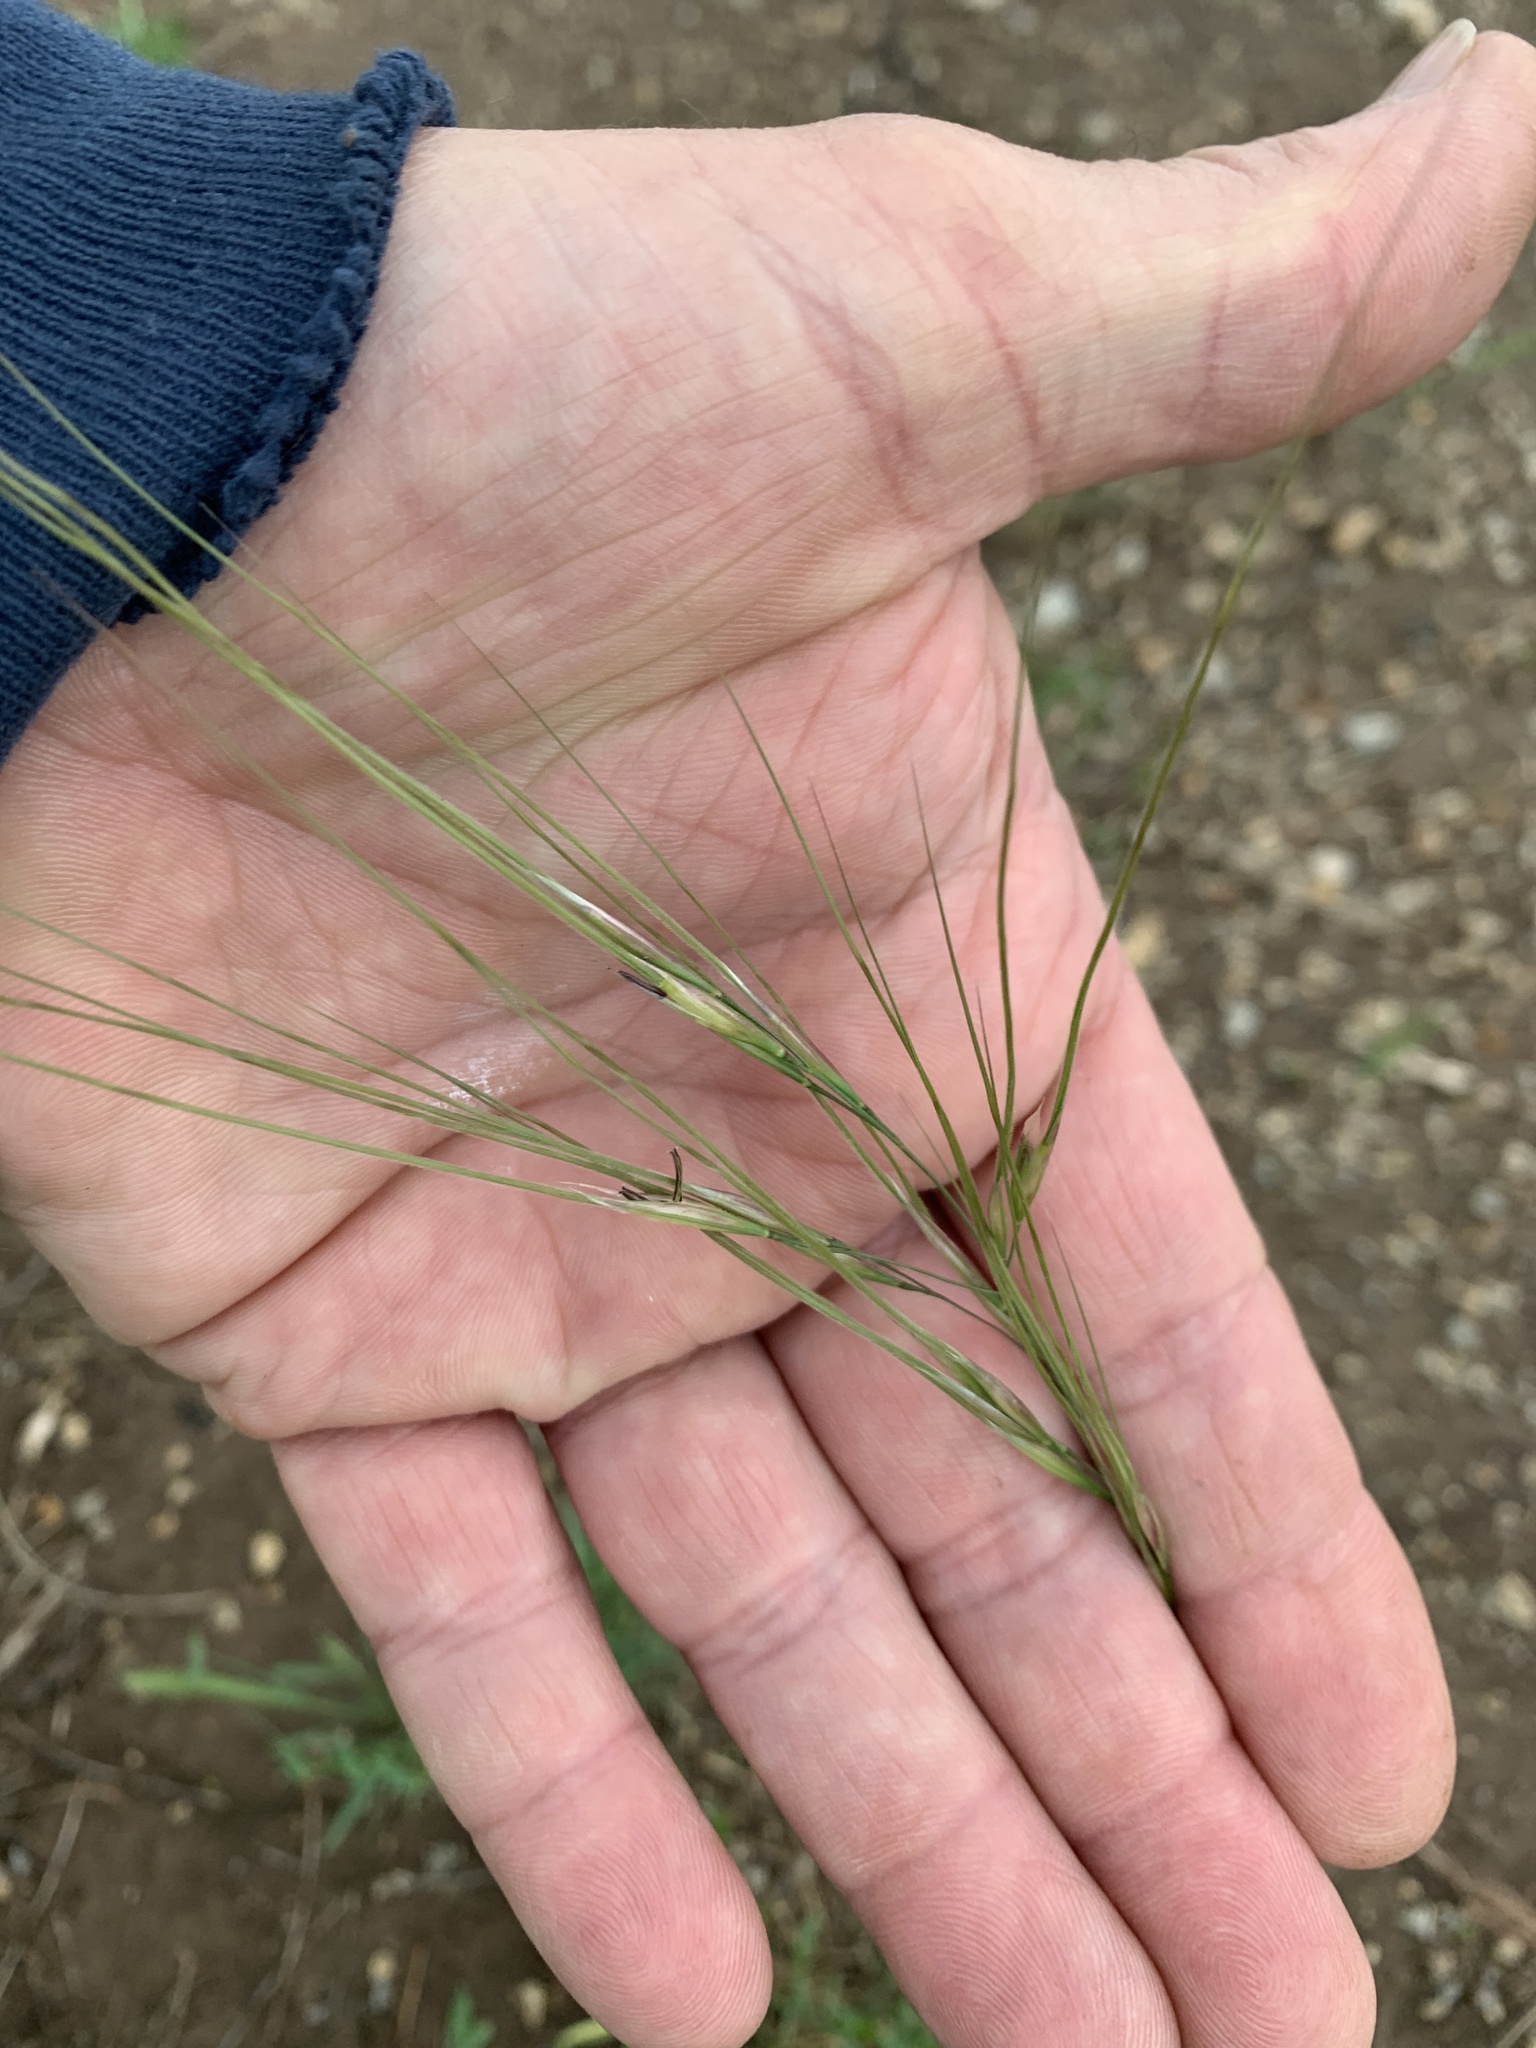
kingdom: Plantae
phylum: Tracheophyta
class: Liliopsida
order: Poales
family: Poaceae
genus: Nassella
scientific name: Nassella leucotricha
